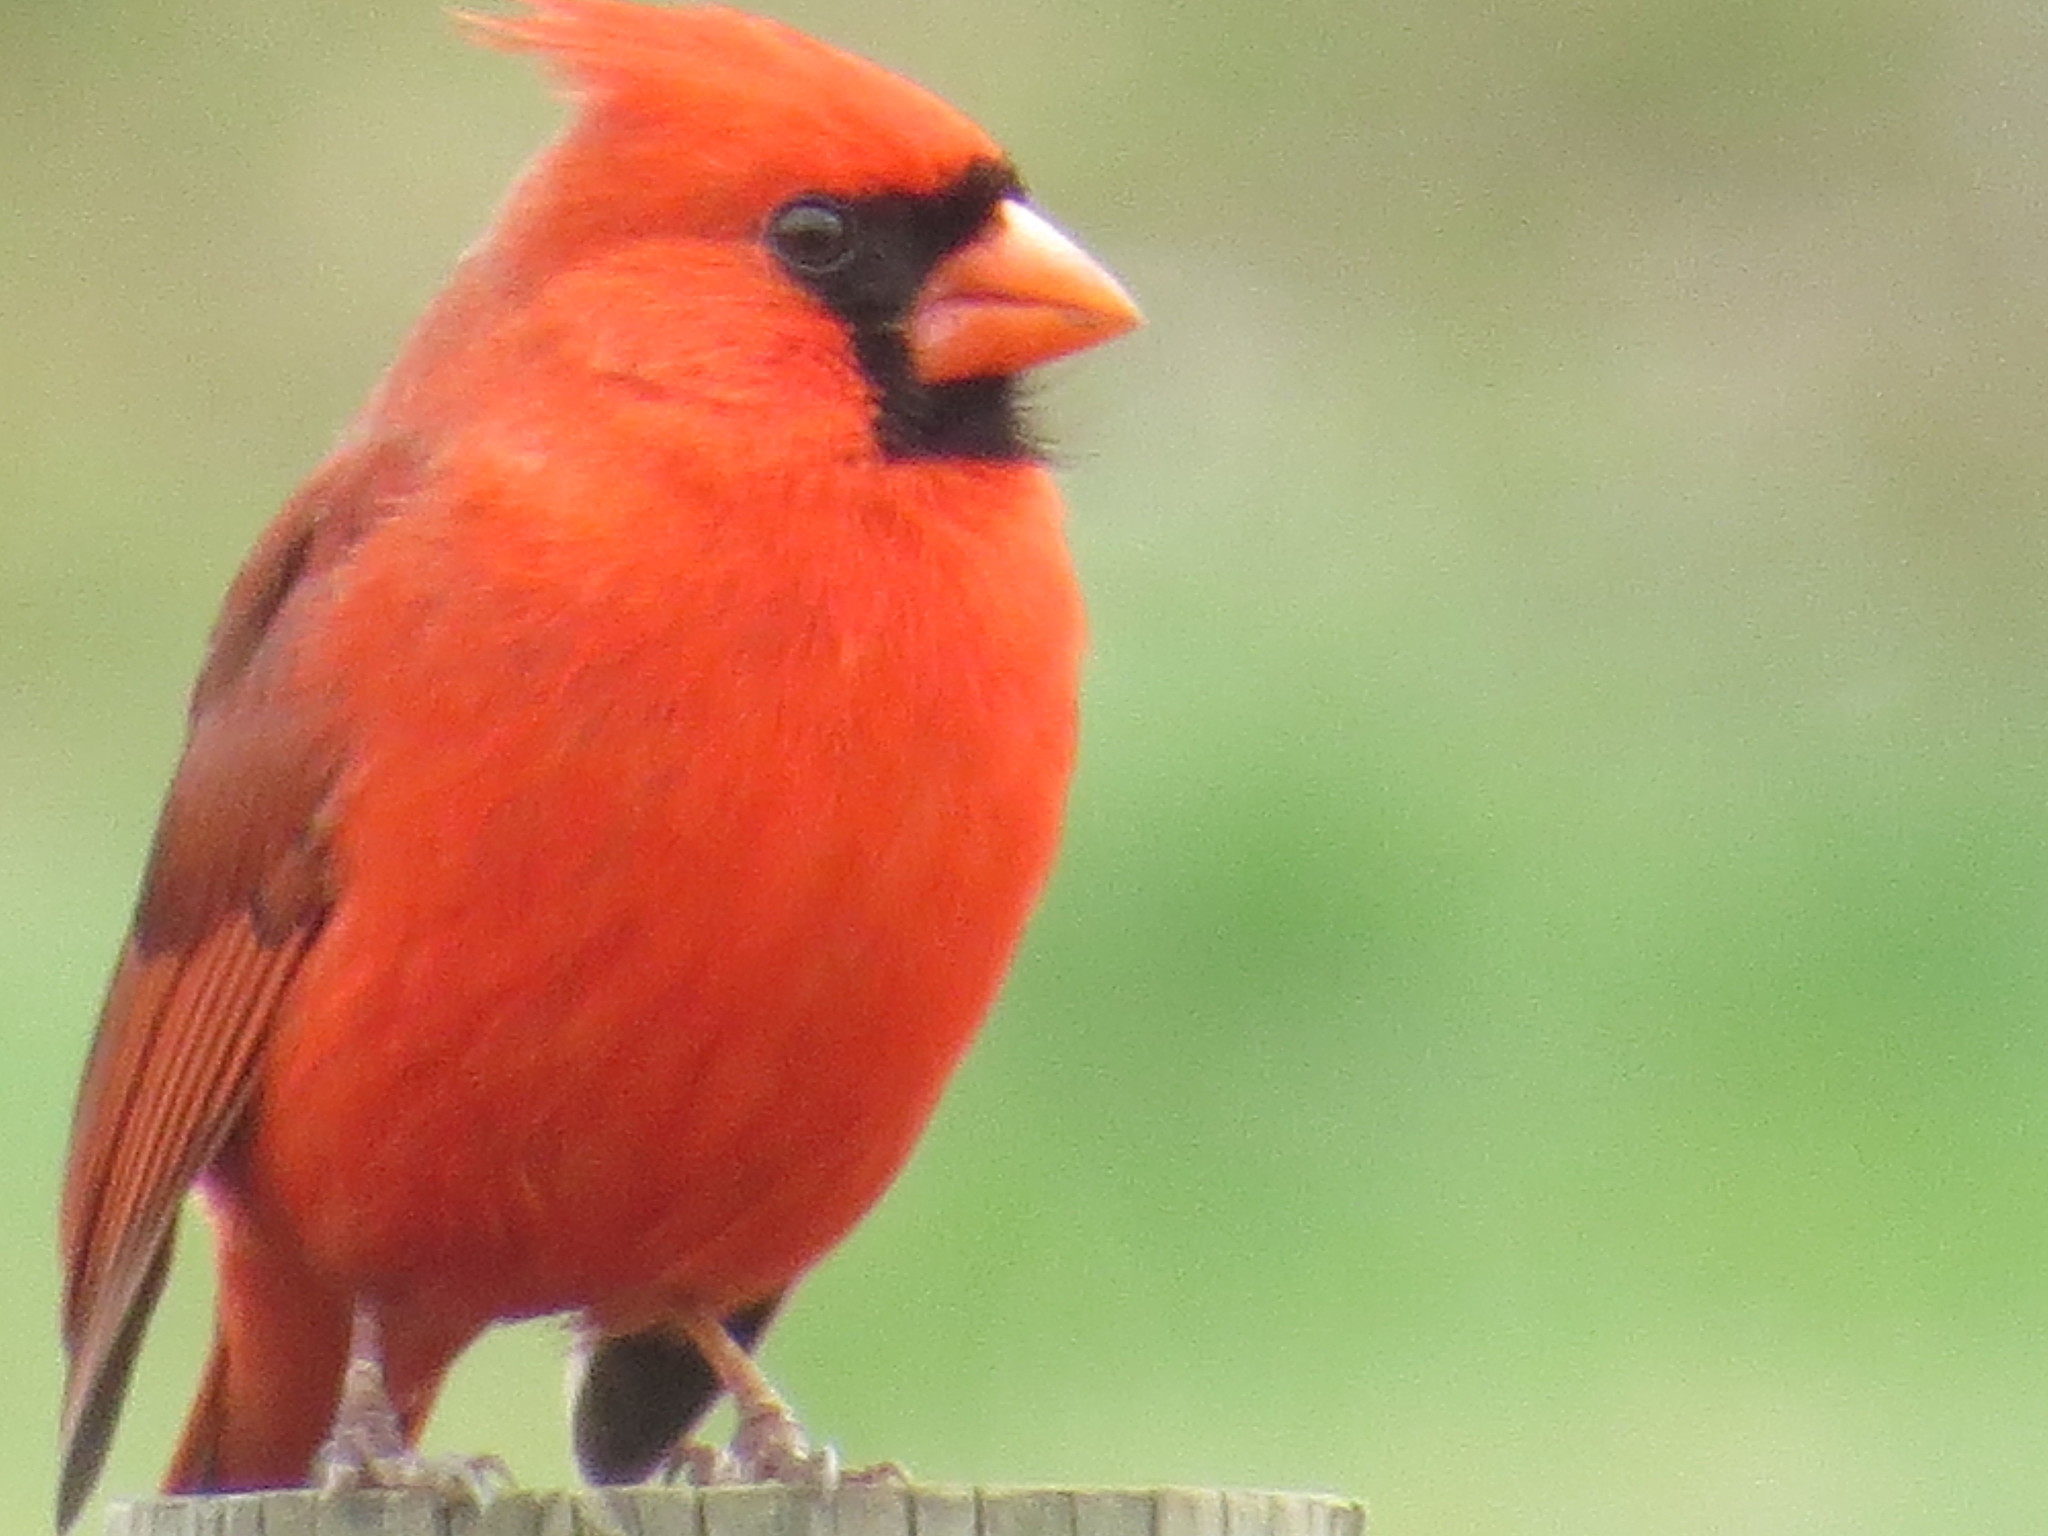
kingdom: Animalia
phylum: Chordata
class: Aves
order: Passeriformes
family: Cardinalidae
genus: Cardinalis
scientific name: Cardinalis cardinalis
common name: Northern cardinal
